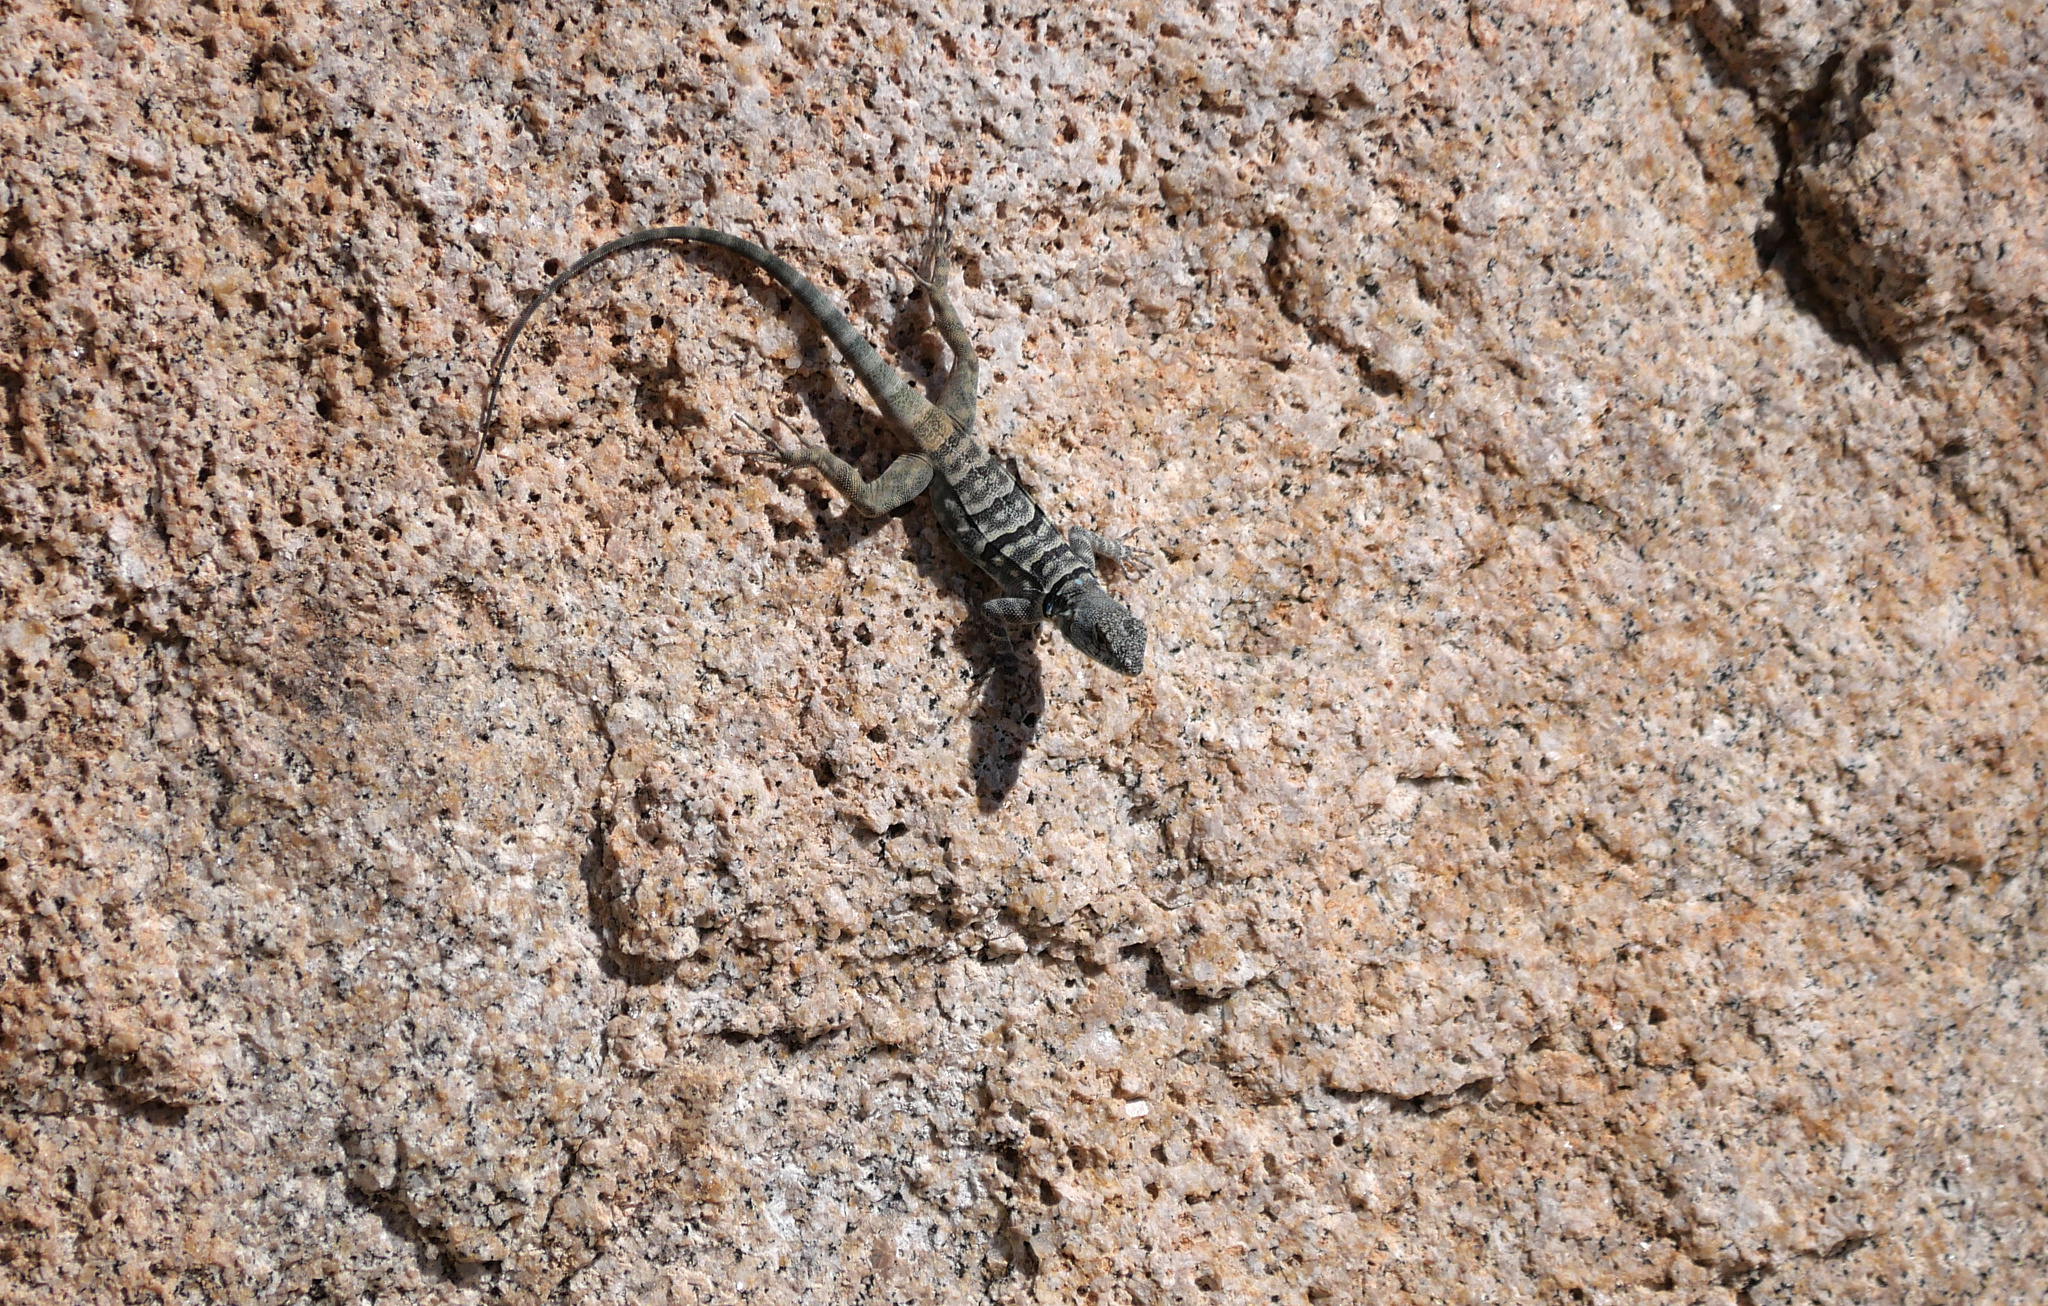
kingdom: Animalia
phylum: Chordata
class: Squamata
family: Phrynosomatidae
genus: Petrosaurus
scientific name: Petrosaurus thalassinus
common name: Baja california rock lizard
